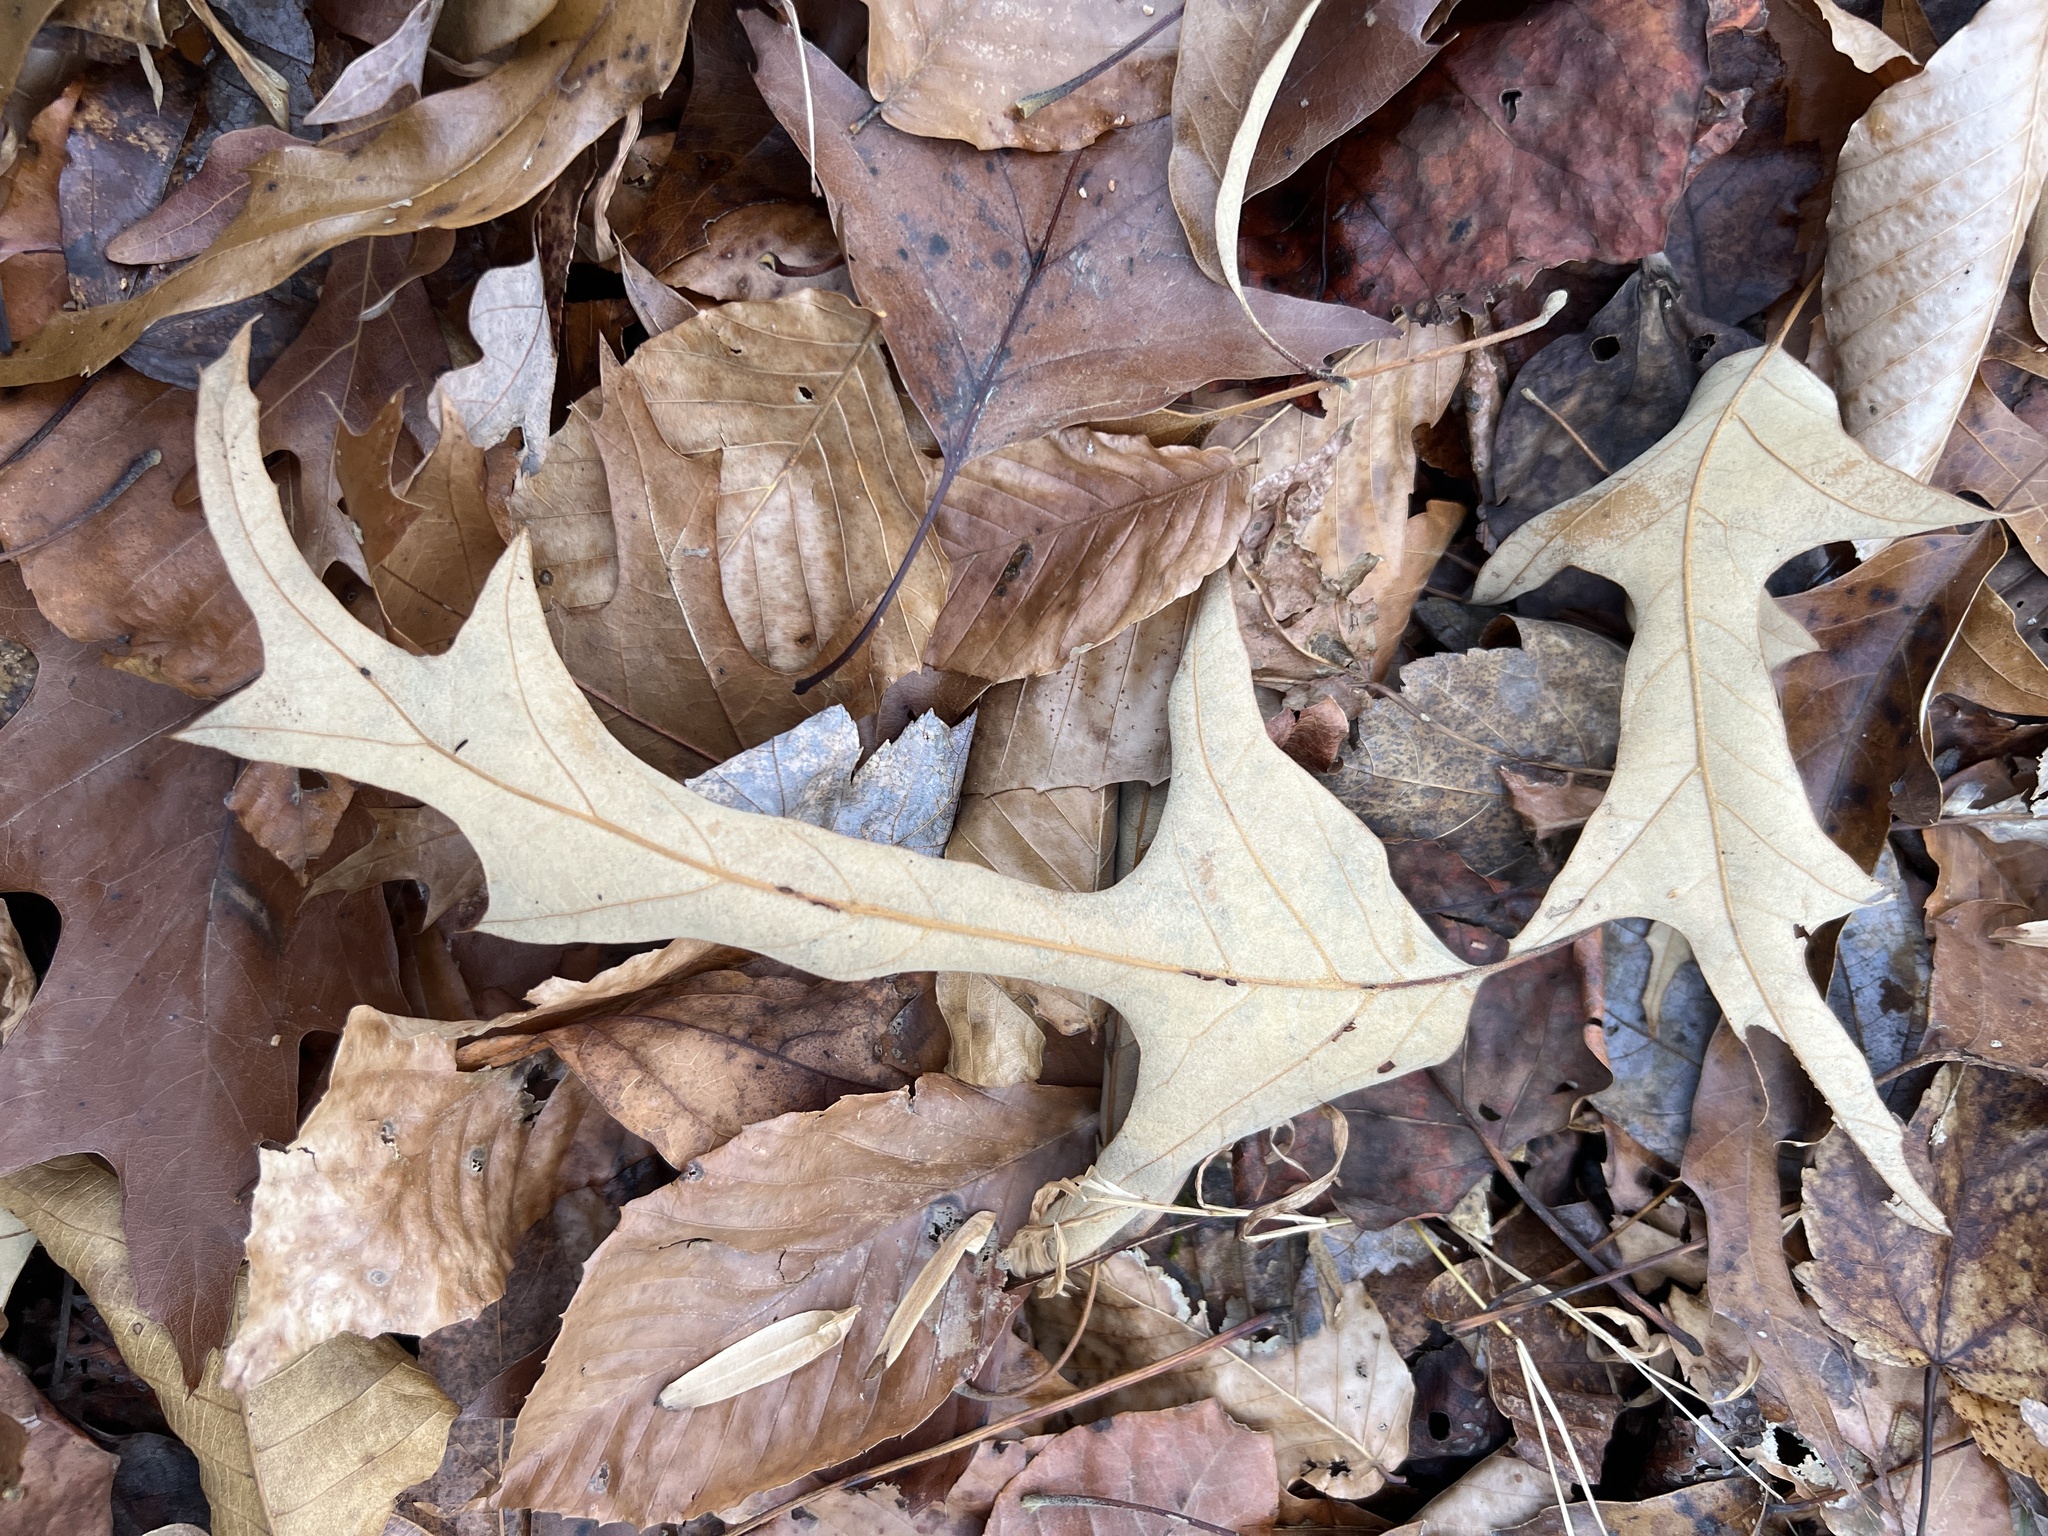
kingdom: Plantae
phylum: Tracheophyta
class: Magnoliopsida
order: Fagales
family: Fagaceae
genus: Quercus
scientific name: Quercus falcata
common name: Southern red oak
